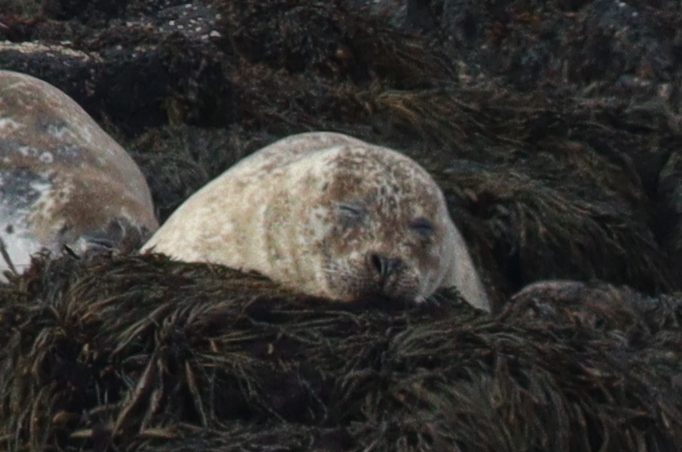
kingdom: Animalia
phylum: Chordata
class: Mammalia
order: Carnivora
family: Phocidae
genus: Phoca
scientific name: Phoca vitulina
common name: Harbor seal
